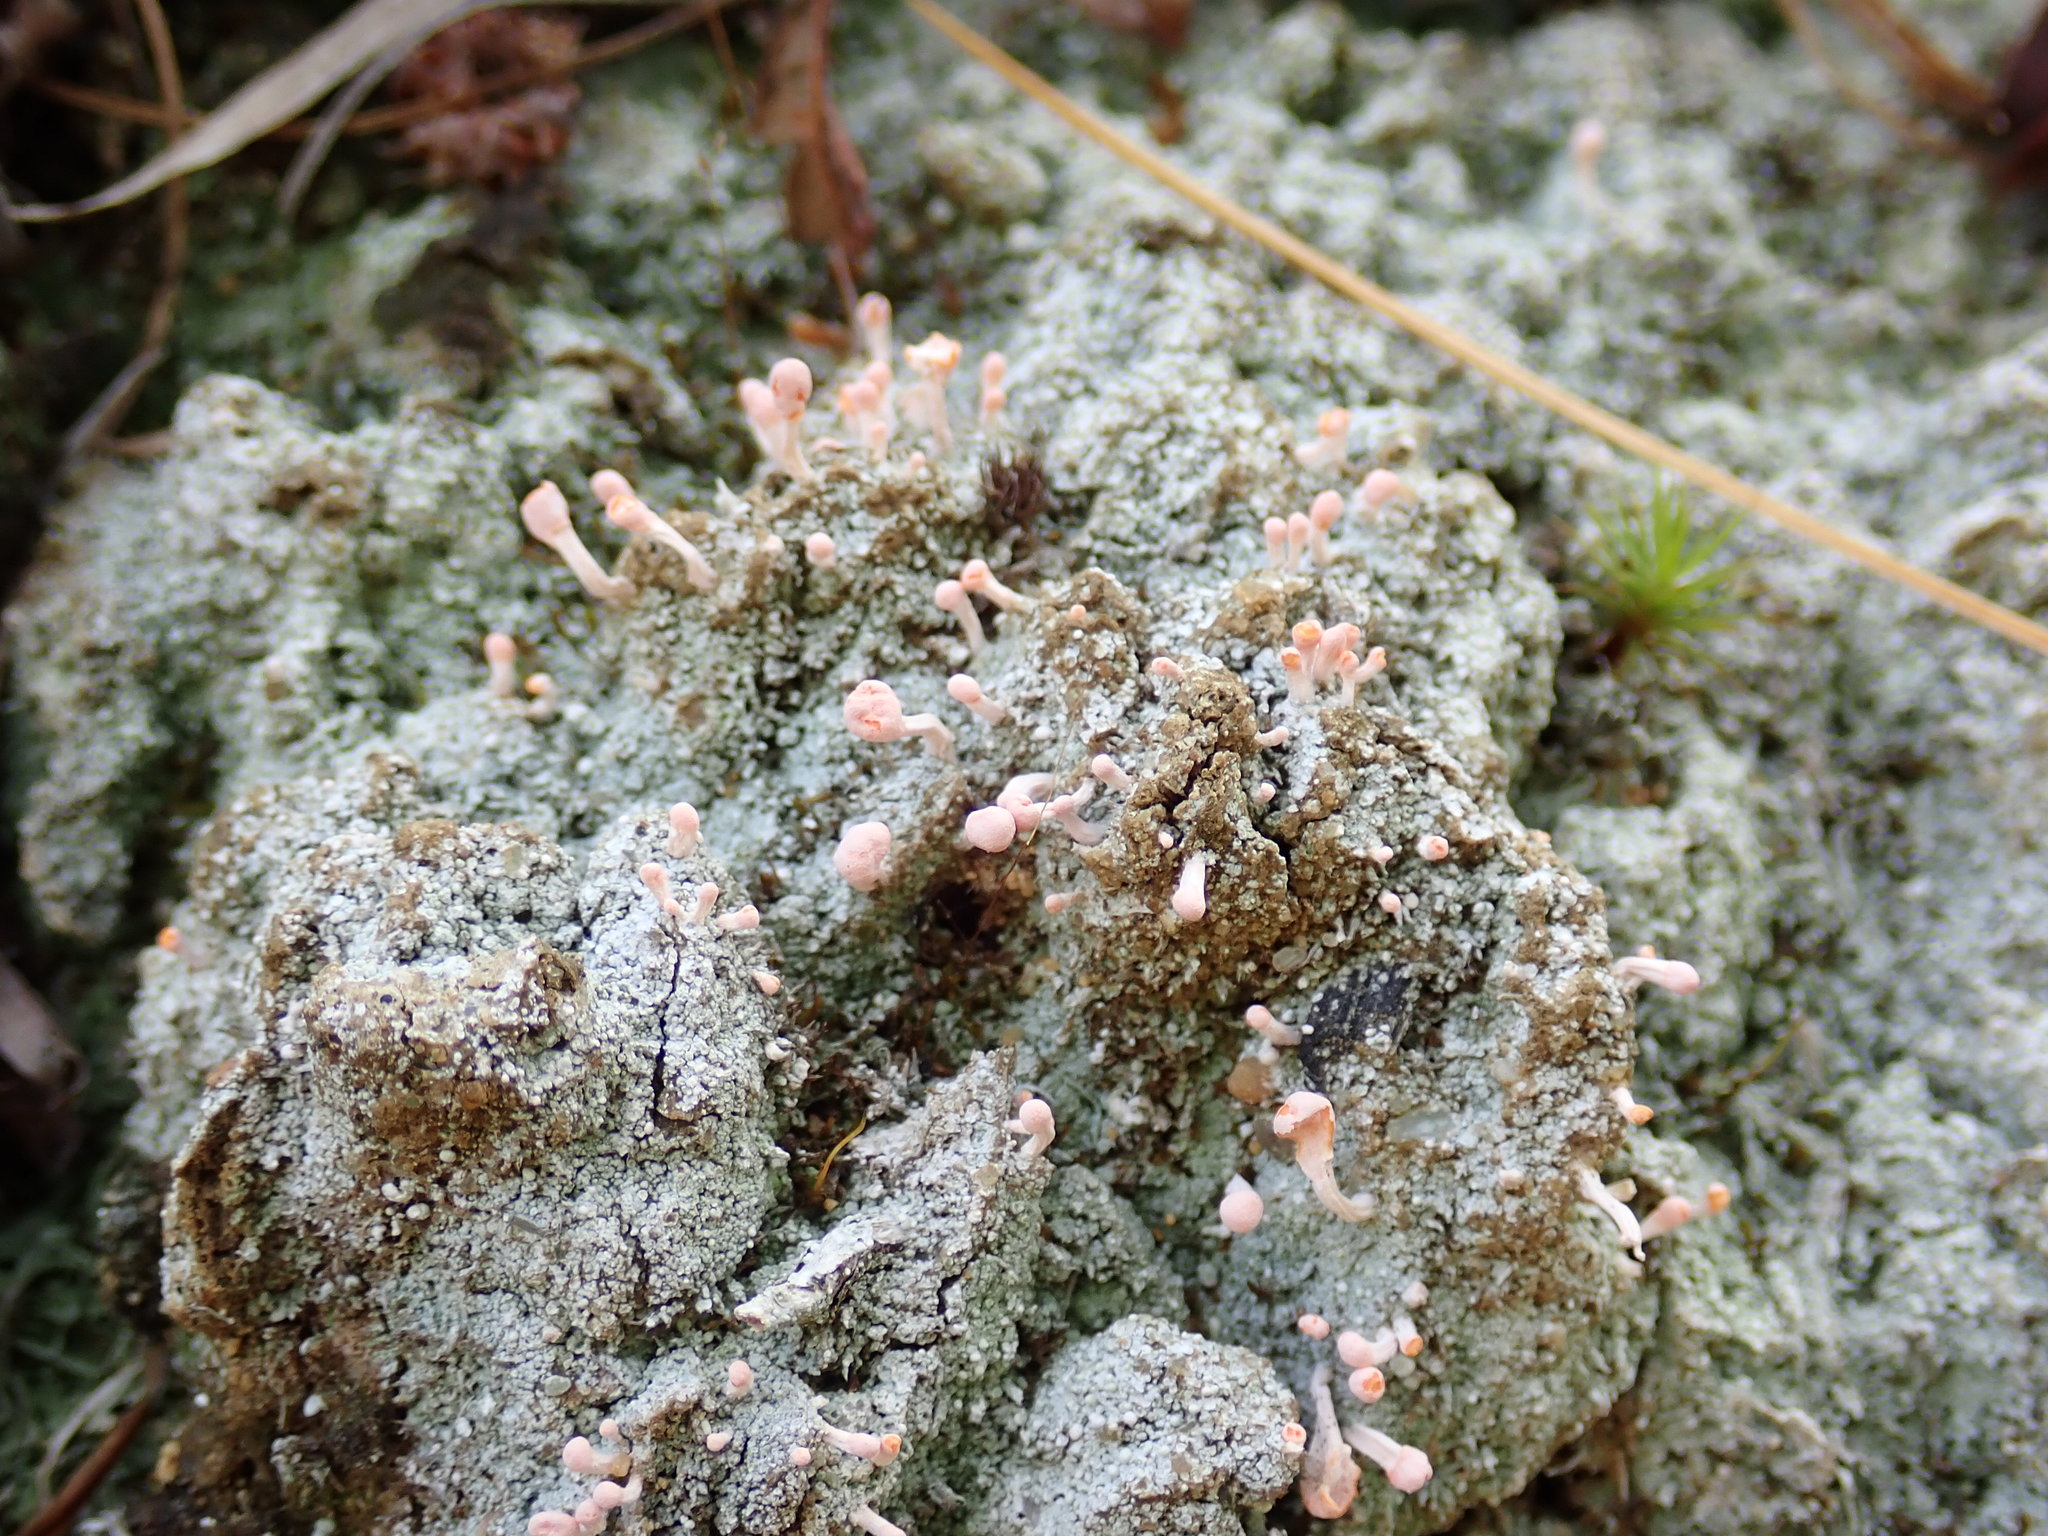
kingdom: Fungi
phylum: Ascomycota
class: Lecanoromycetes
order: Pertusariales
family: Icmadophilaceae
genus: Dibaeis
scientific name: Dibaeis baeomyces
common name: Pink earth lichen
